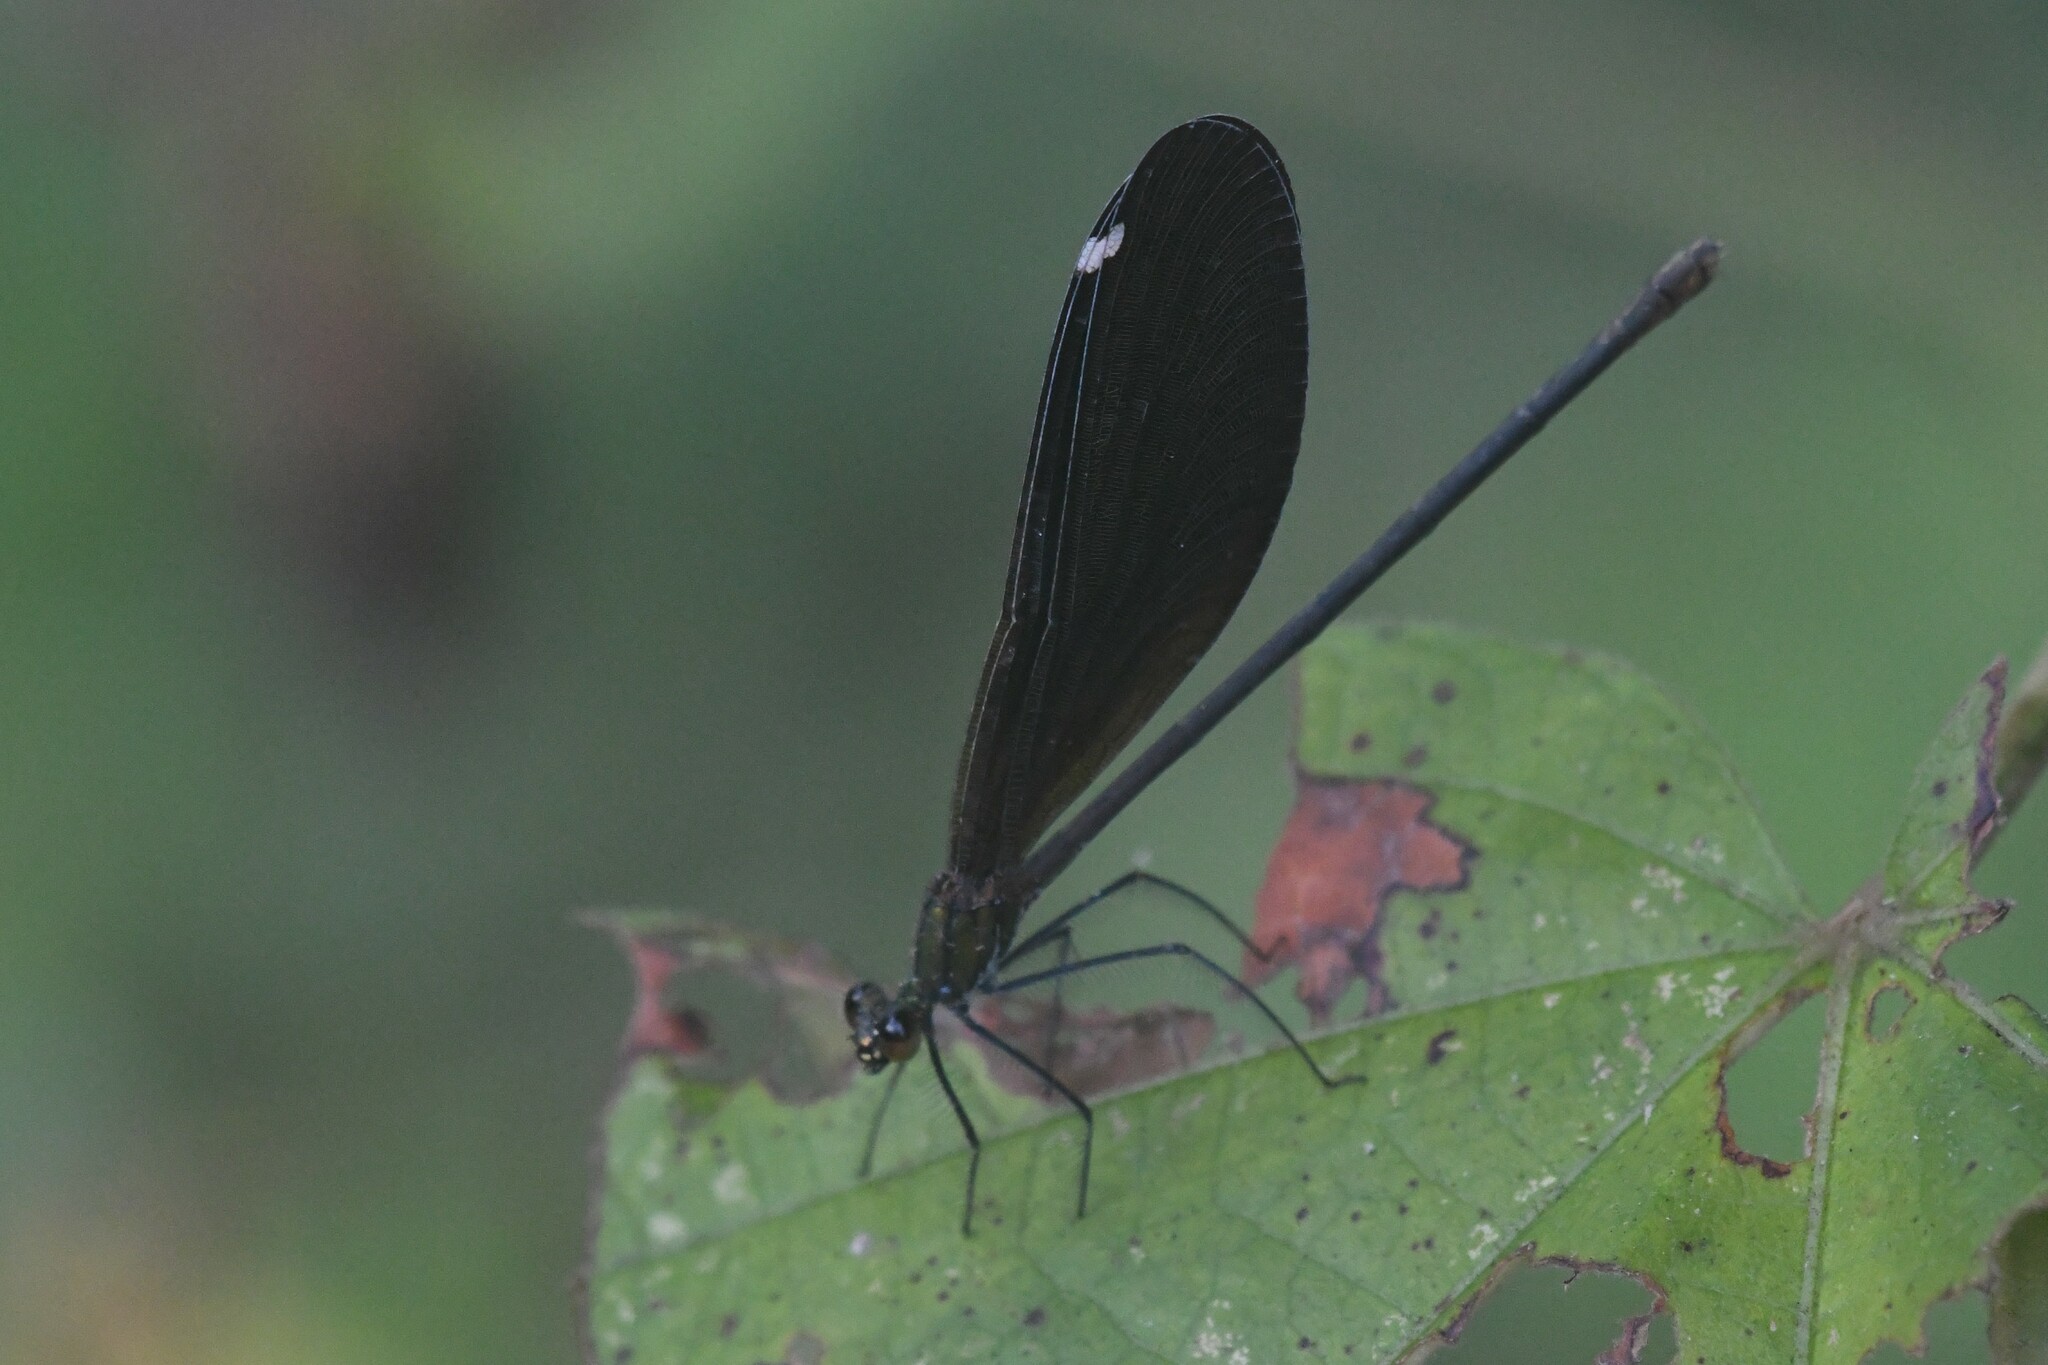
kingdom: Animalia
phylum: Arthropoda
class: Insecta
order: Odonata
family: Calopterygidae
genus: Matrona
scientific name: Matrona nigripectus
